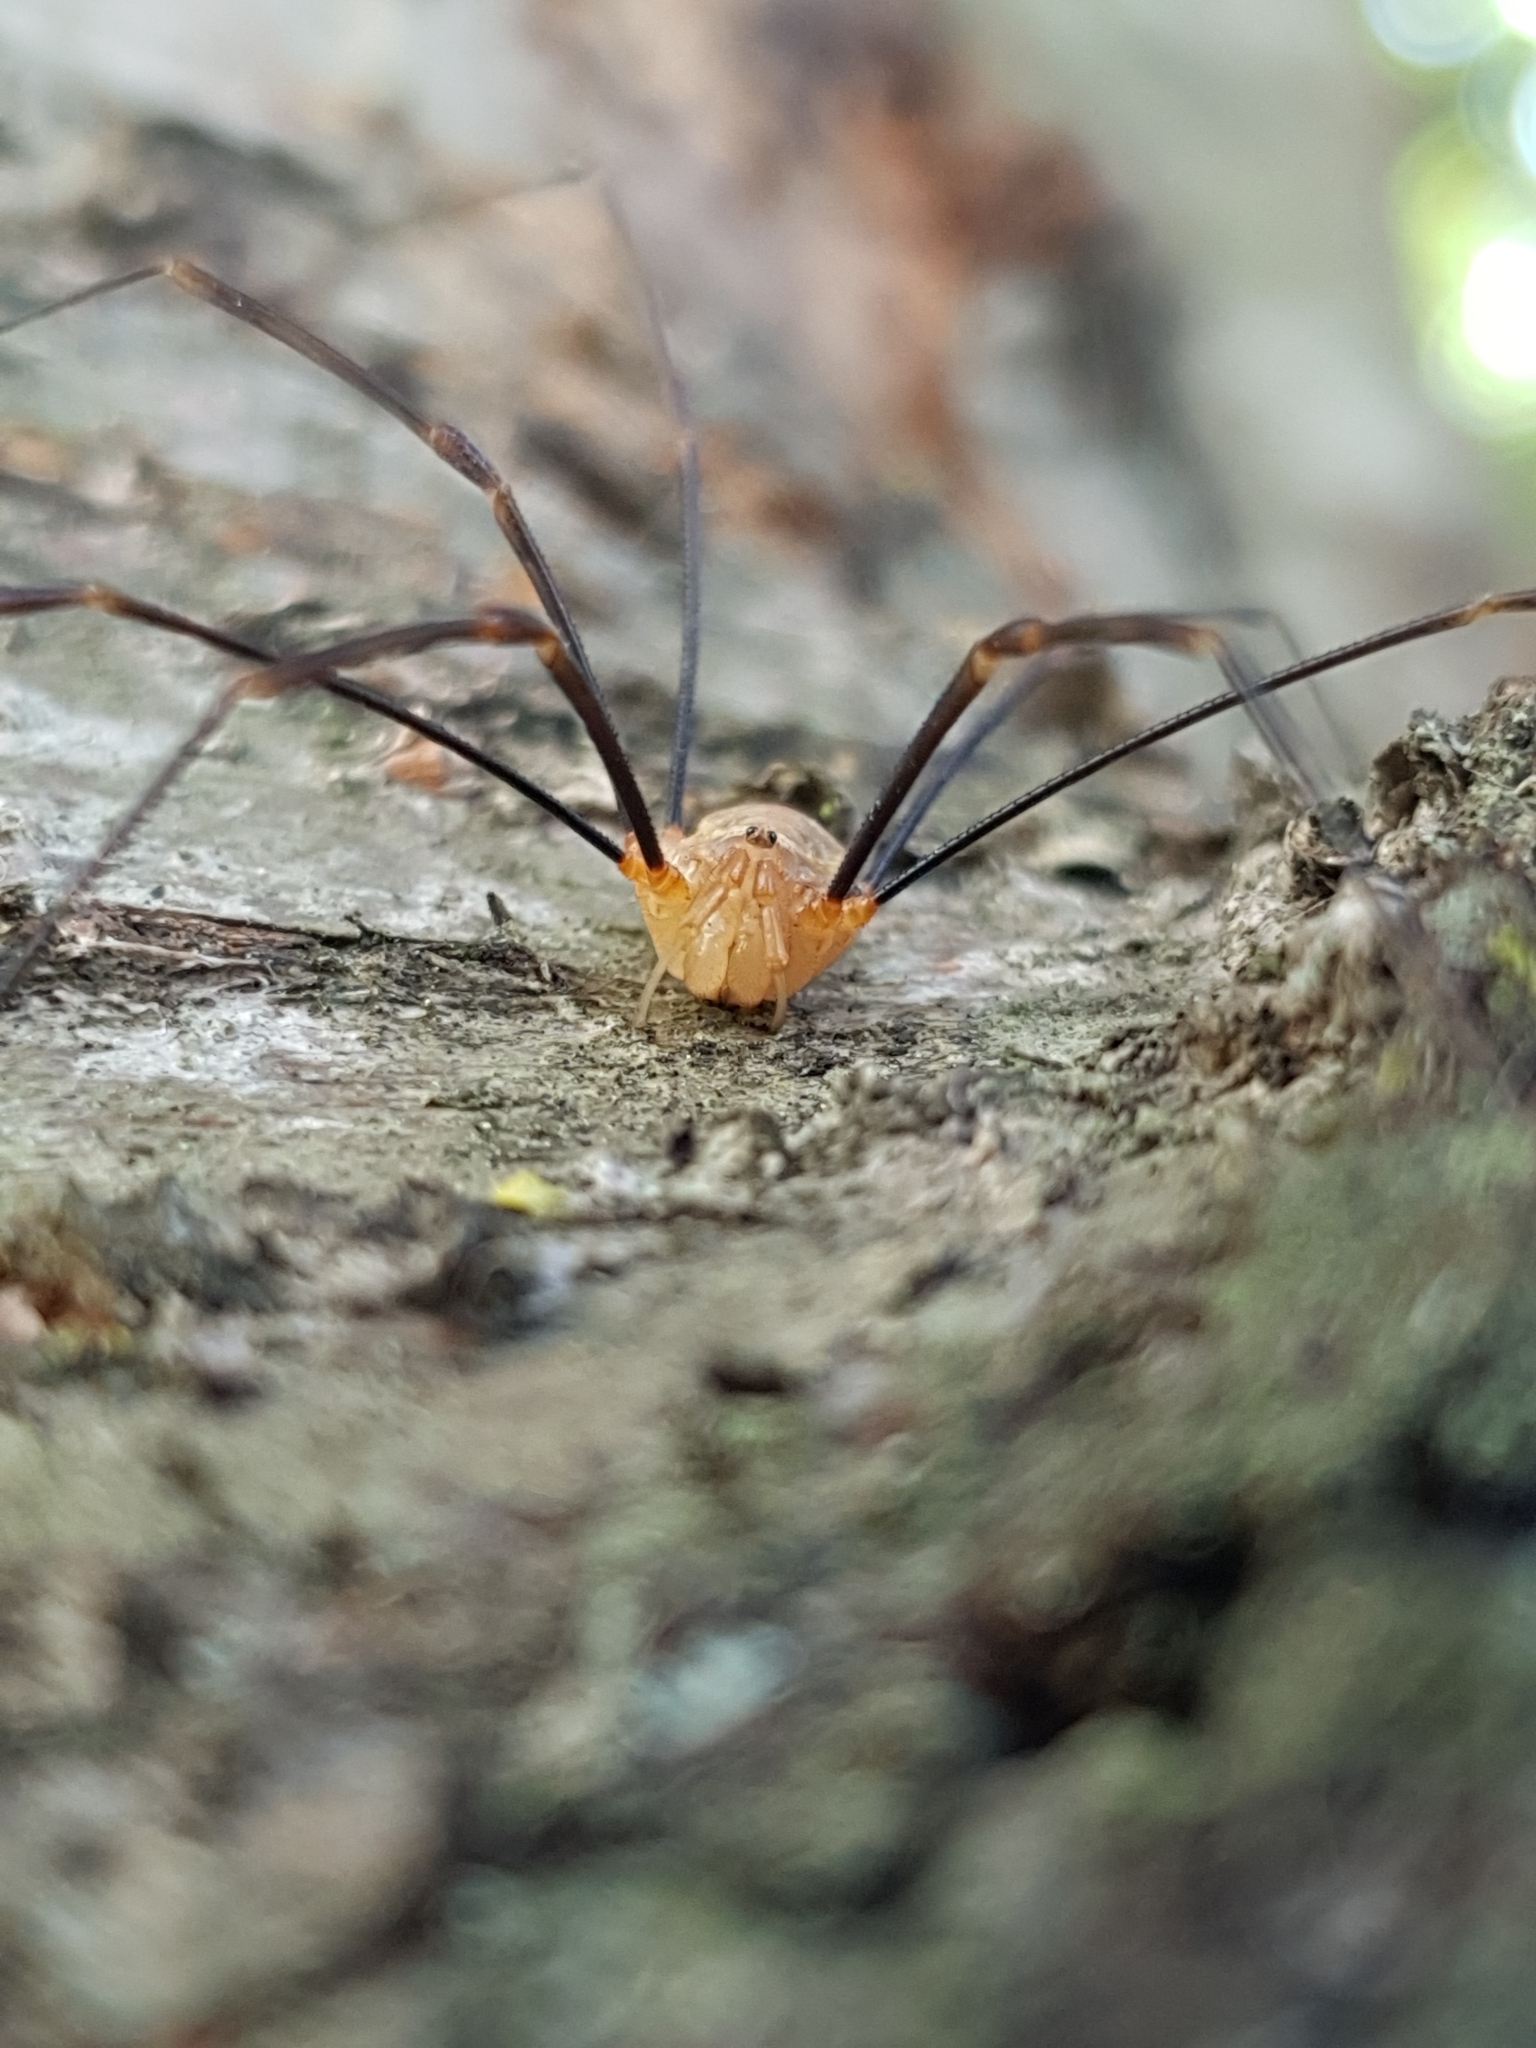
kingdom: Animalia
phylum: Arthropoda
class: Arachnida
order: Opiliones
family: Phalangiidae
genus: Opilio
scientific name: Opilio canestrinii
